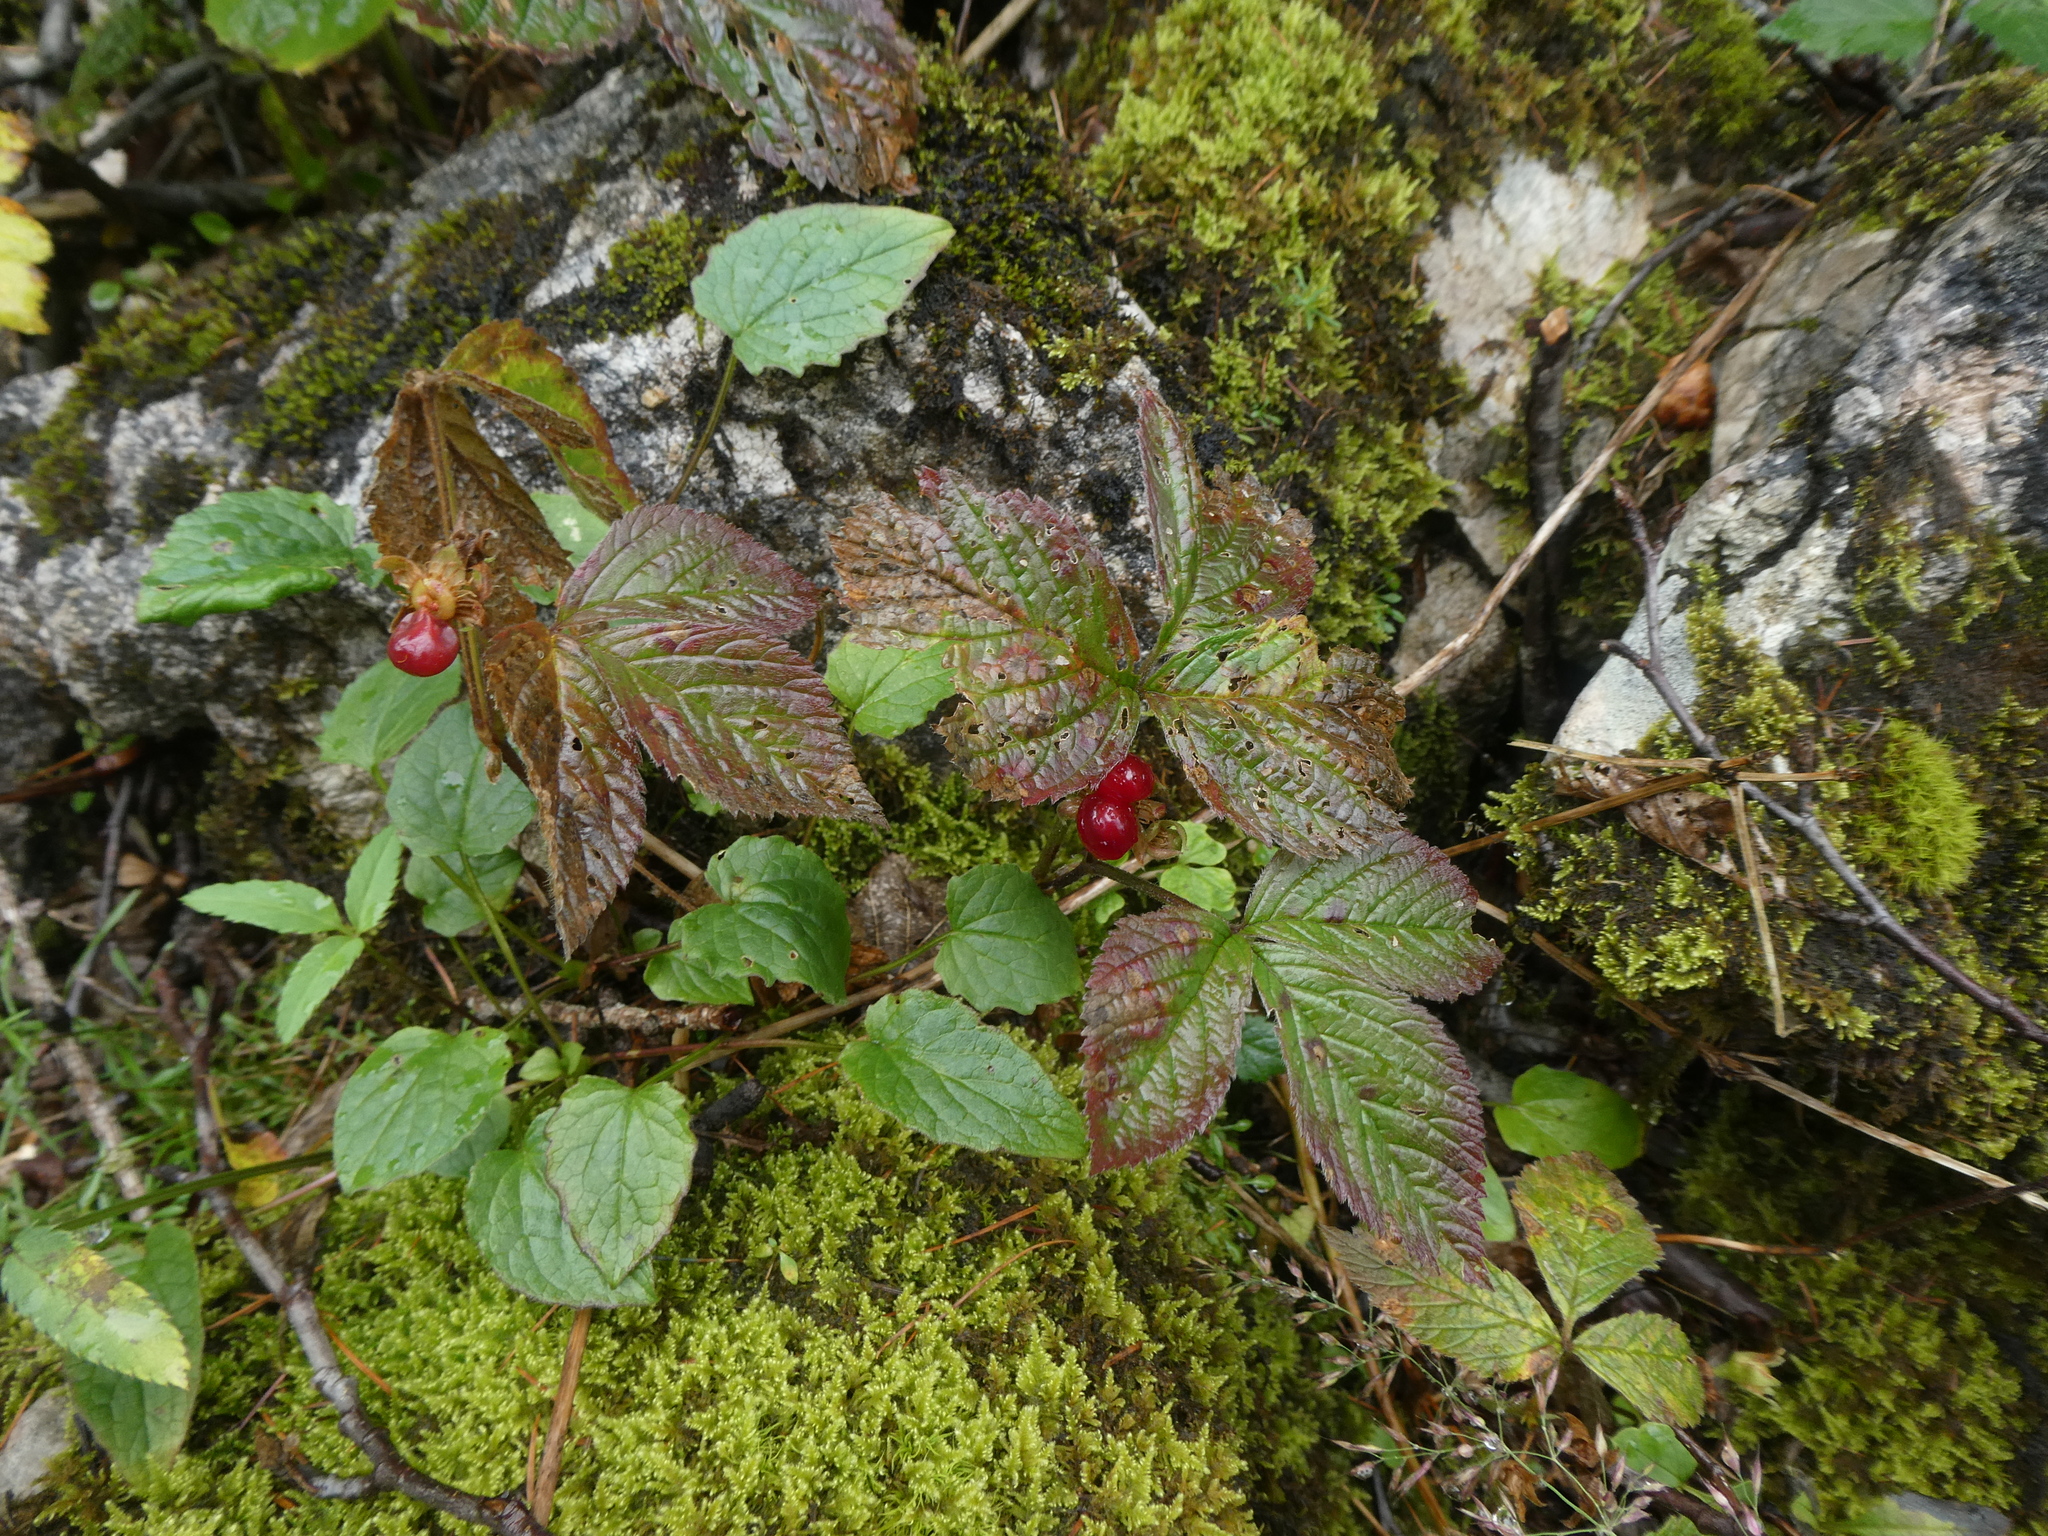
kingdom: Plantae
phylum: Tracheophyta
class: Magnoliopsida
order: Rosales
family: Rosaceae
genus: Rubus
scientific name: Rubus saxatilis
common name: Stone bramble
